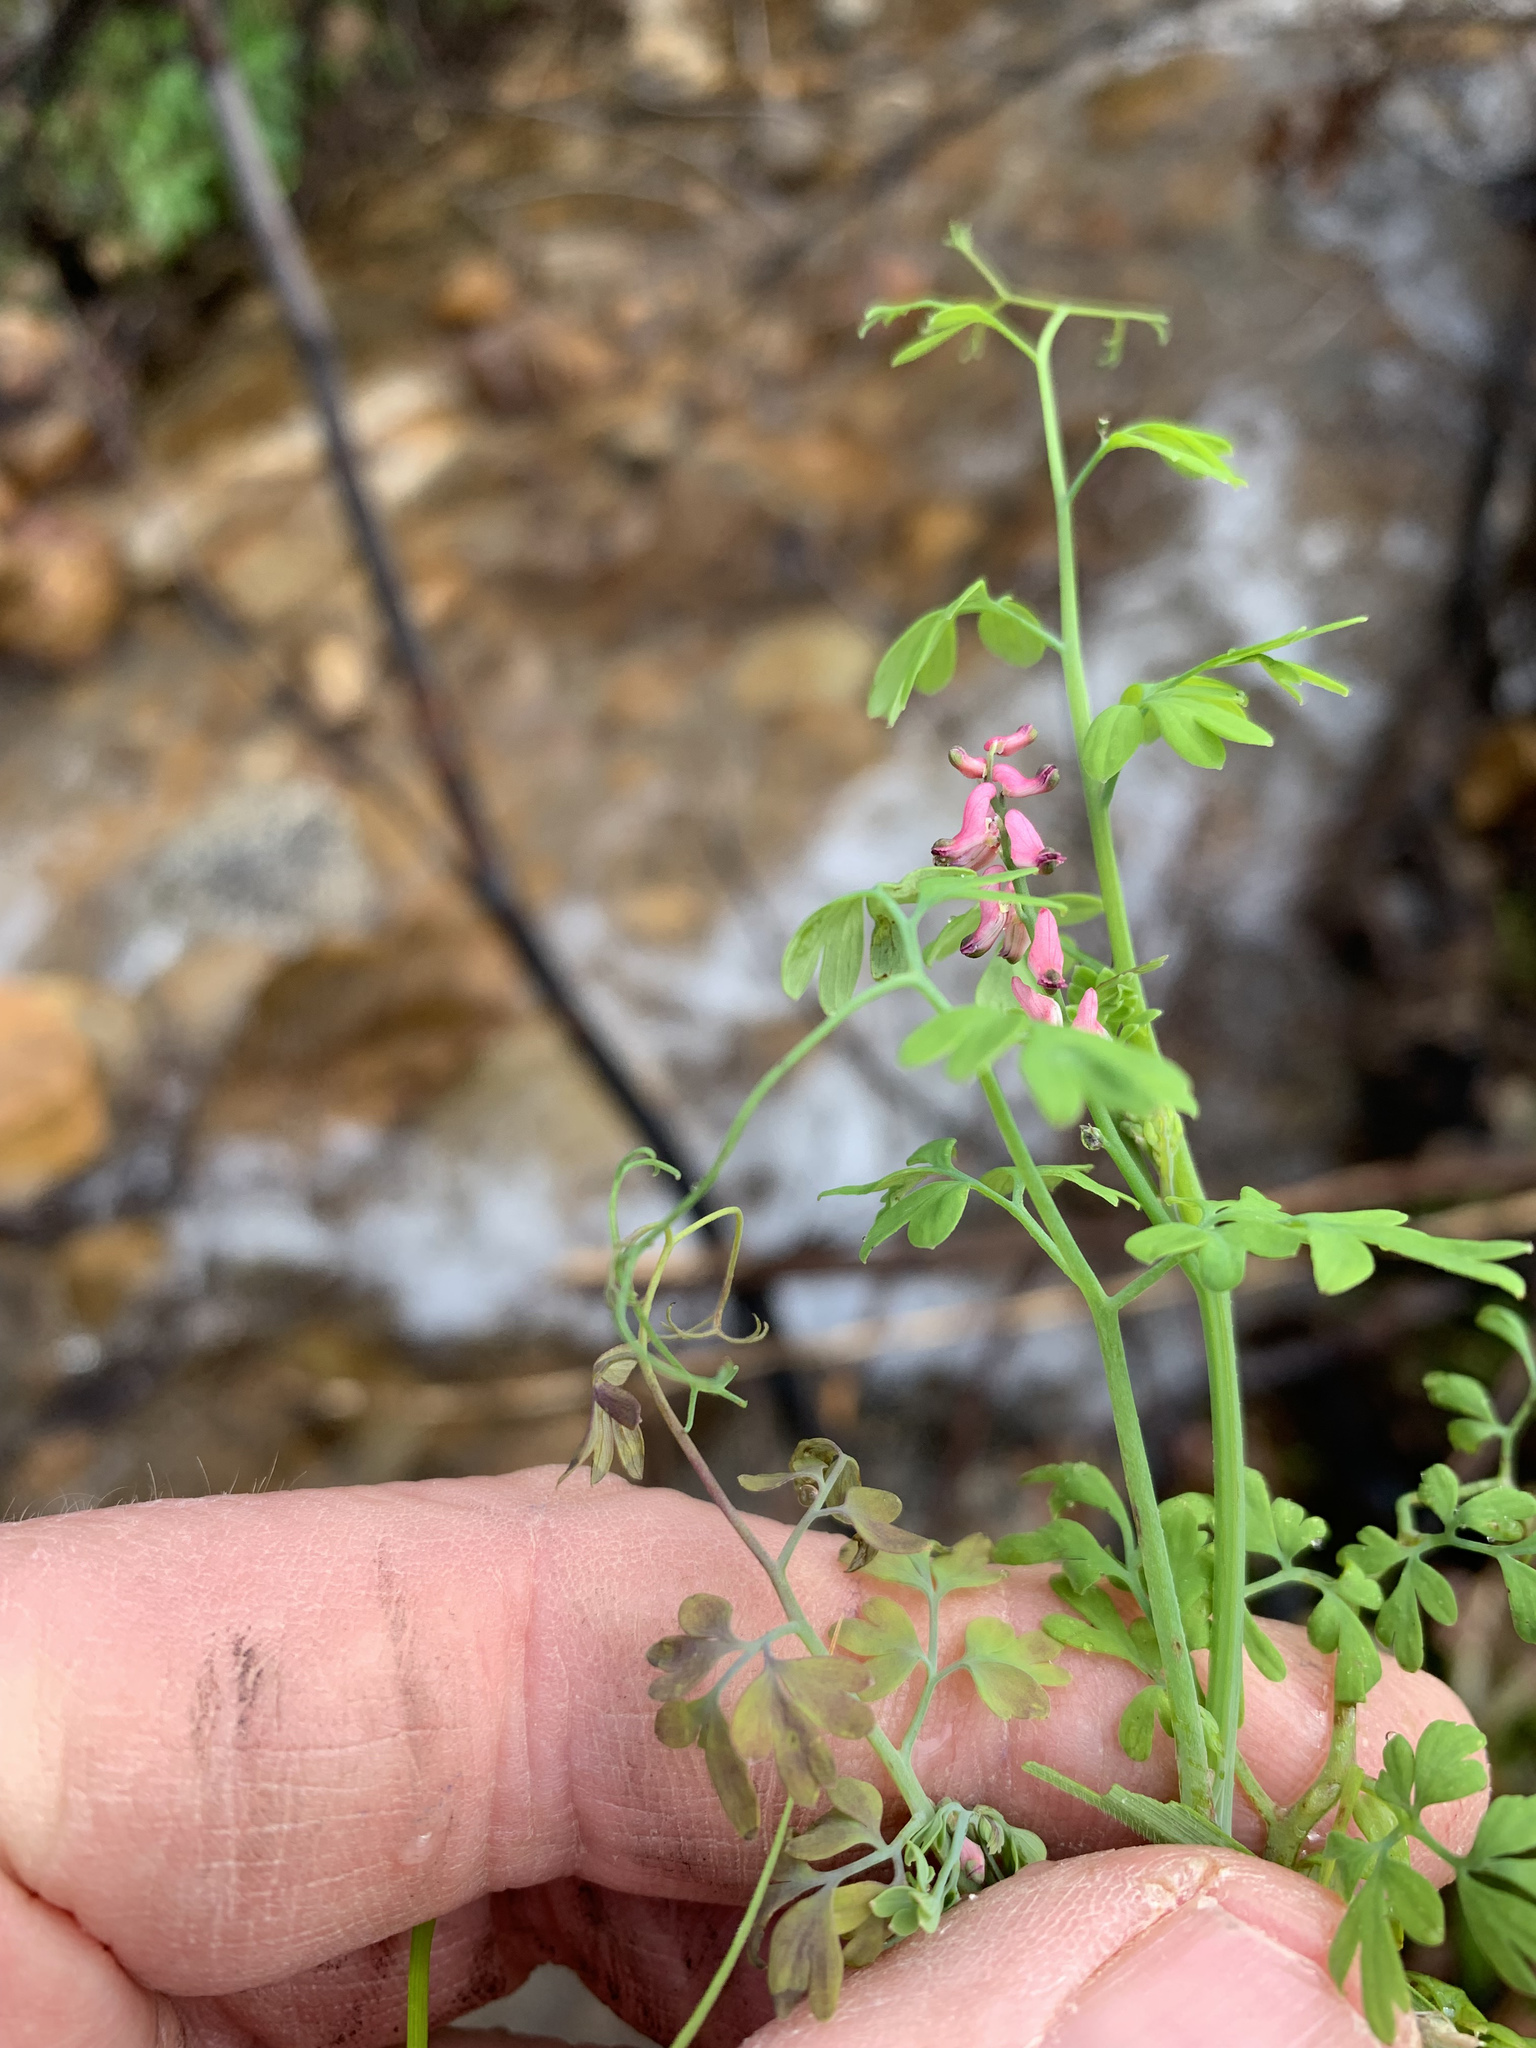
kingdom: Plantae
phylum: Tracheophyta
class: Magnoliopsida
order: Ranunculales
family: Papaveraceae
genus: Fumaria
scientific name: Fumaria muralis
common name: Common ramping-fumitory
